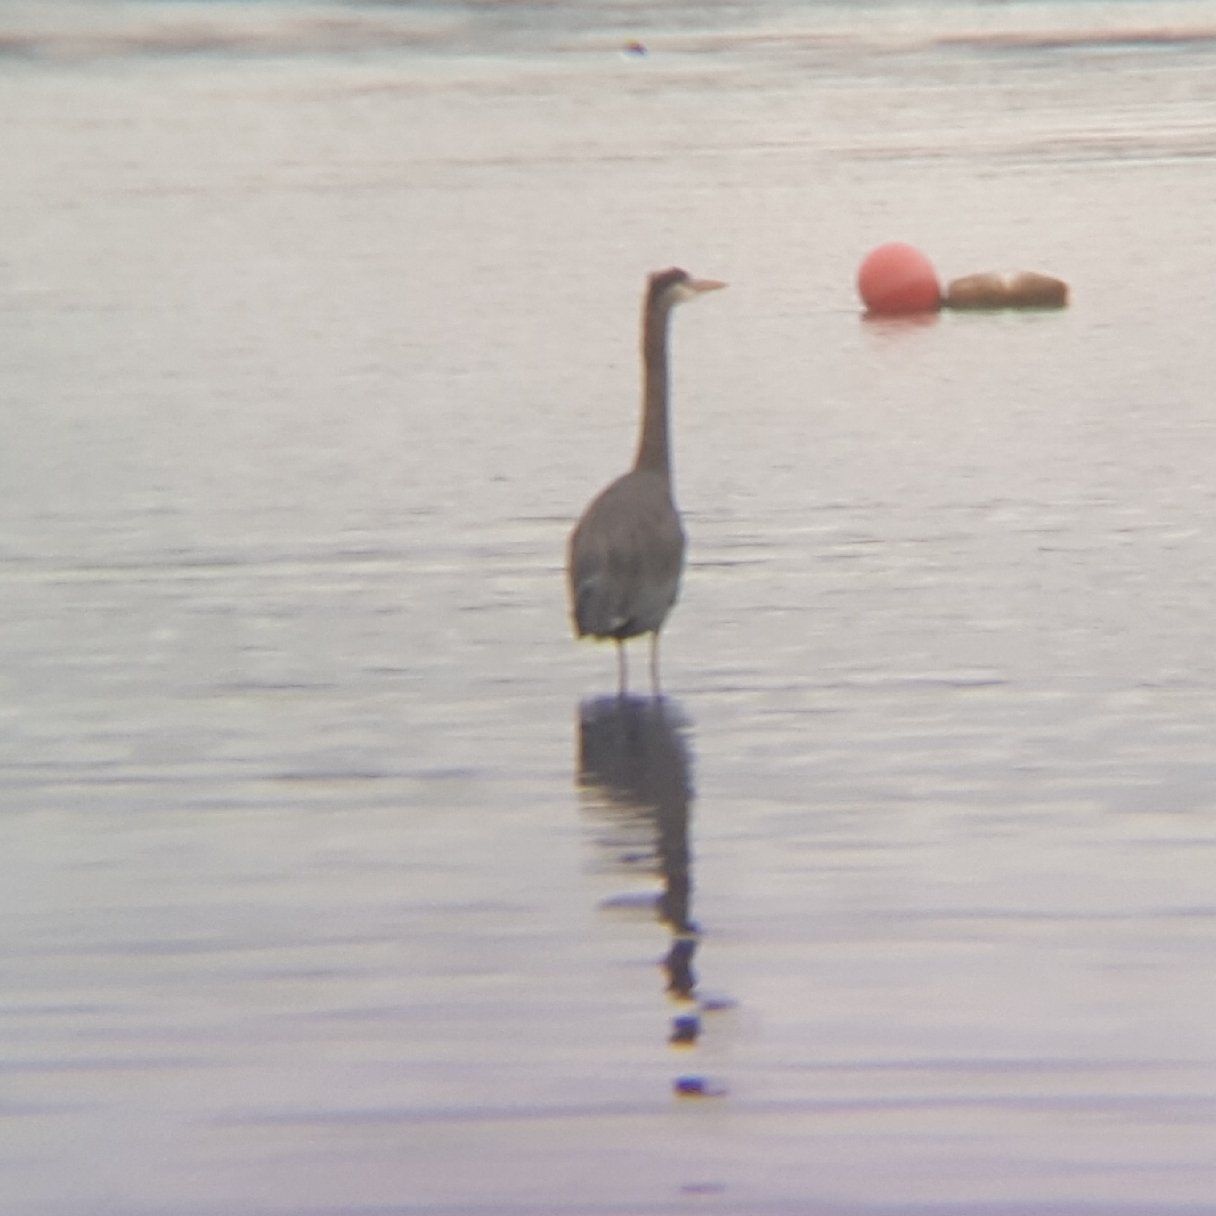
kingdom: Animalia
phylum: Chordata
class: Aves
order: Pelecaniformes
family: Ardeidae
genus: Ardea
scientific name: Ardea herodias
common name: Great blue heron
